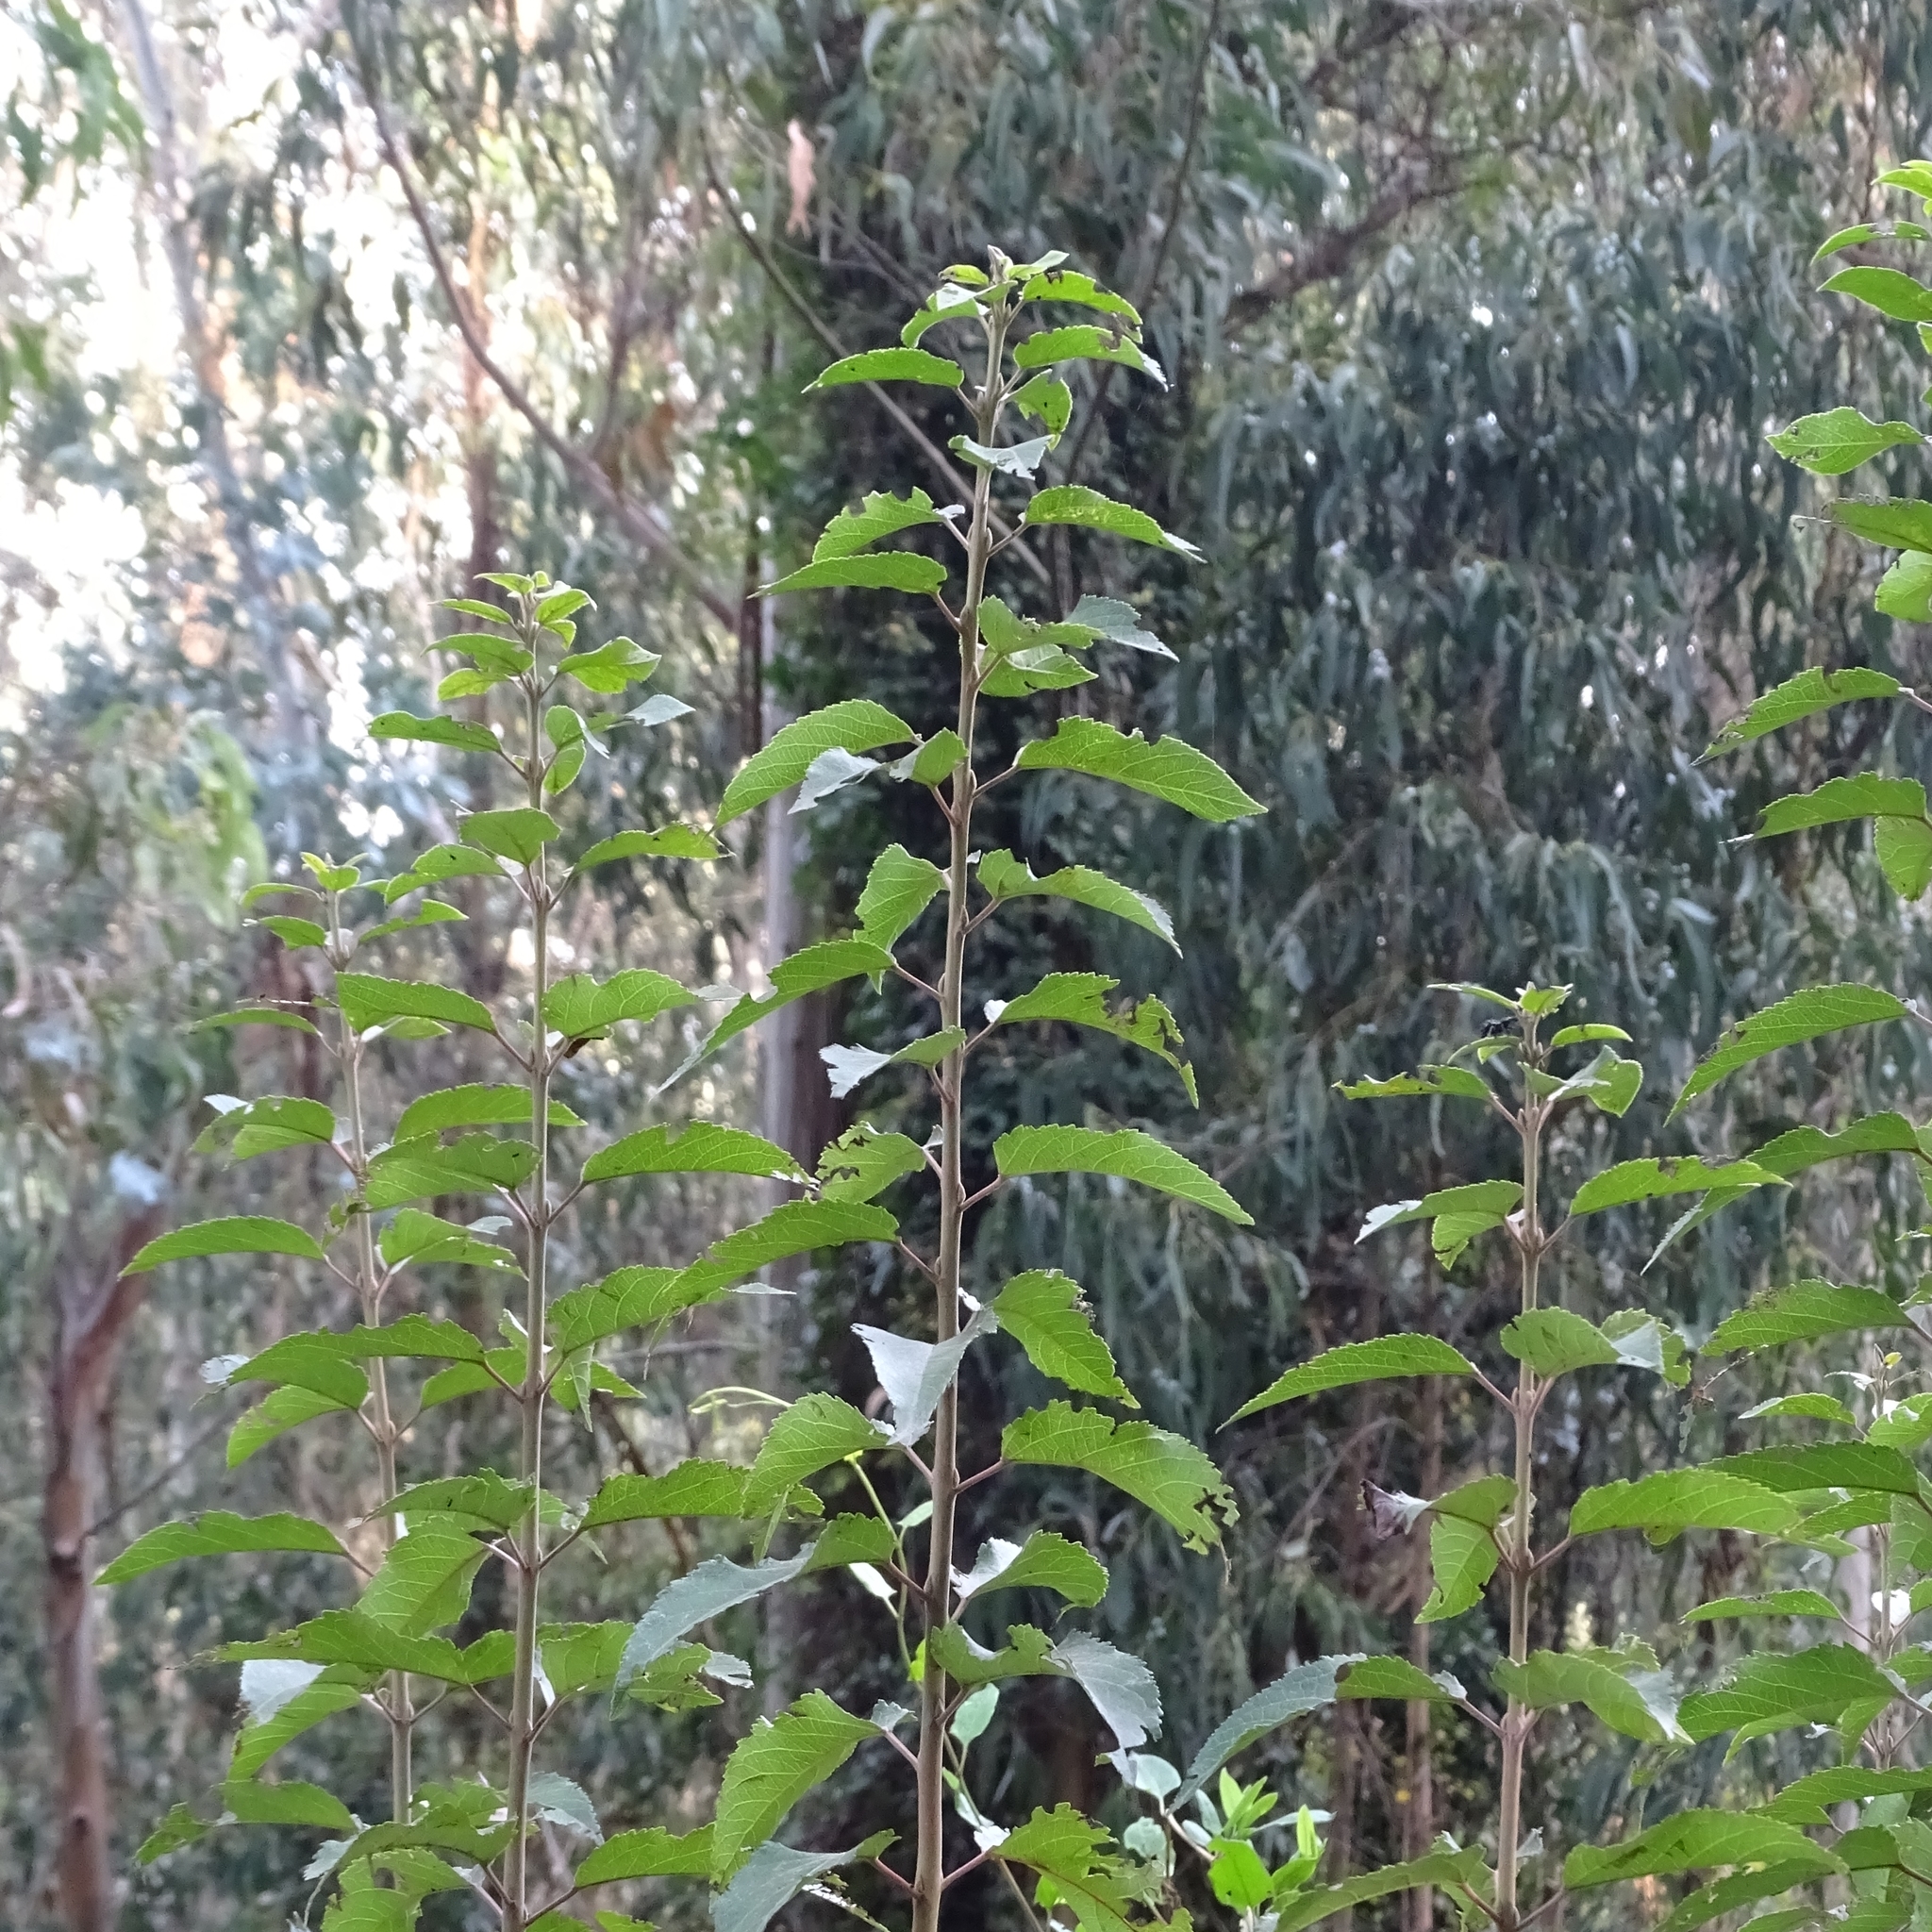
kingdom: Plantae
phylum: Tracheophyta
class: Magnoliopsida
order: Oxalidales
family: Elaeocarpaceae
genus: Aristotelia
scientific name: Aristotelia chilensis
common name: Maquei
